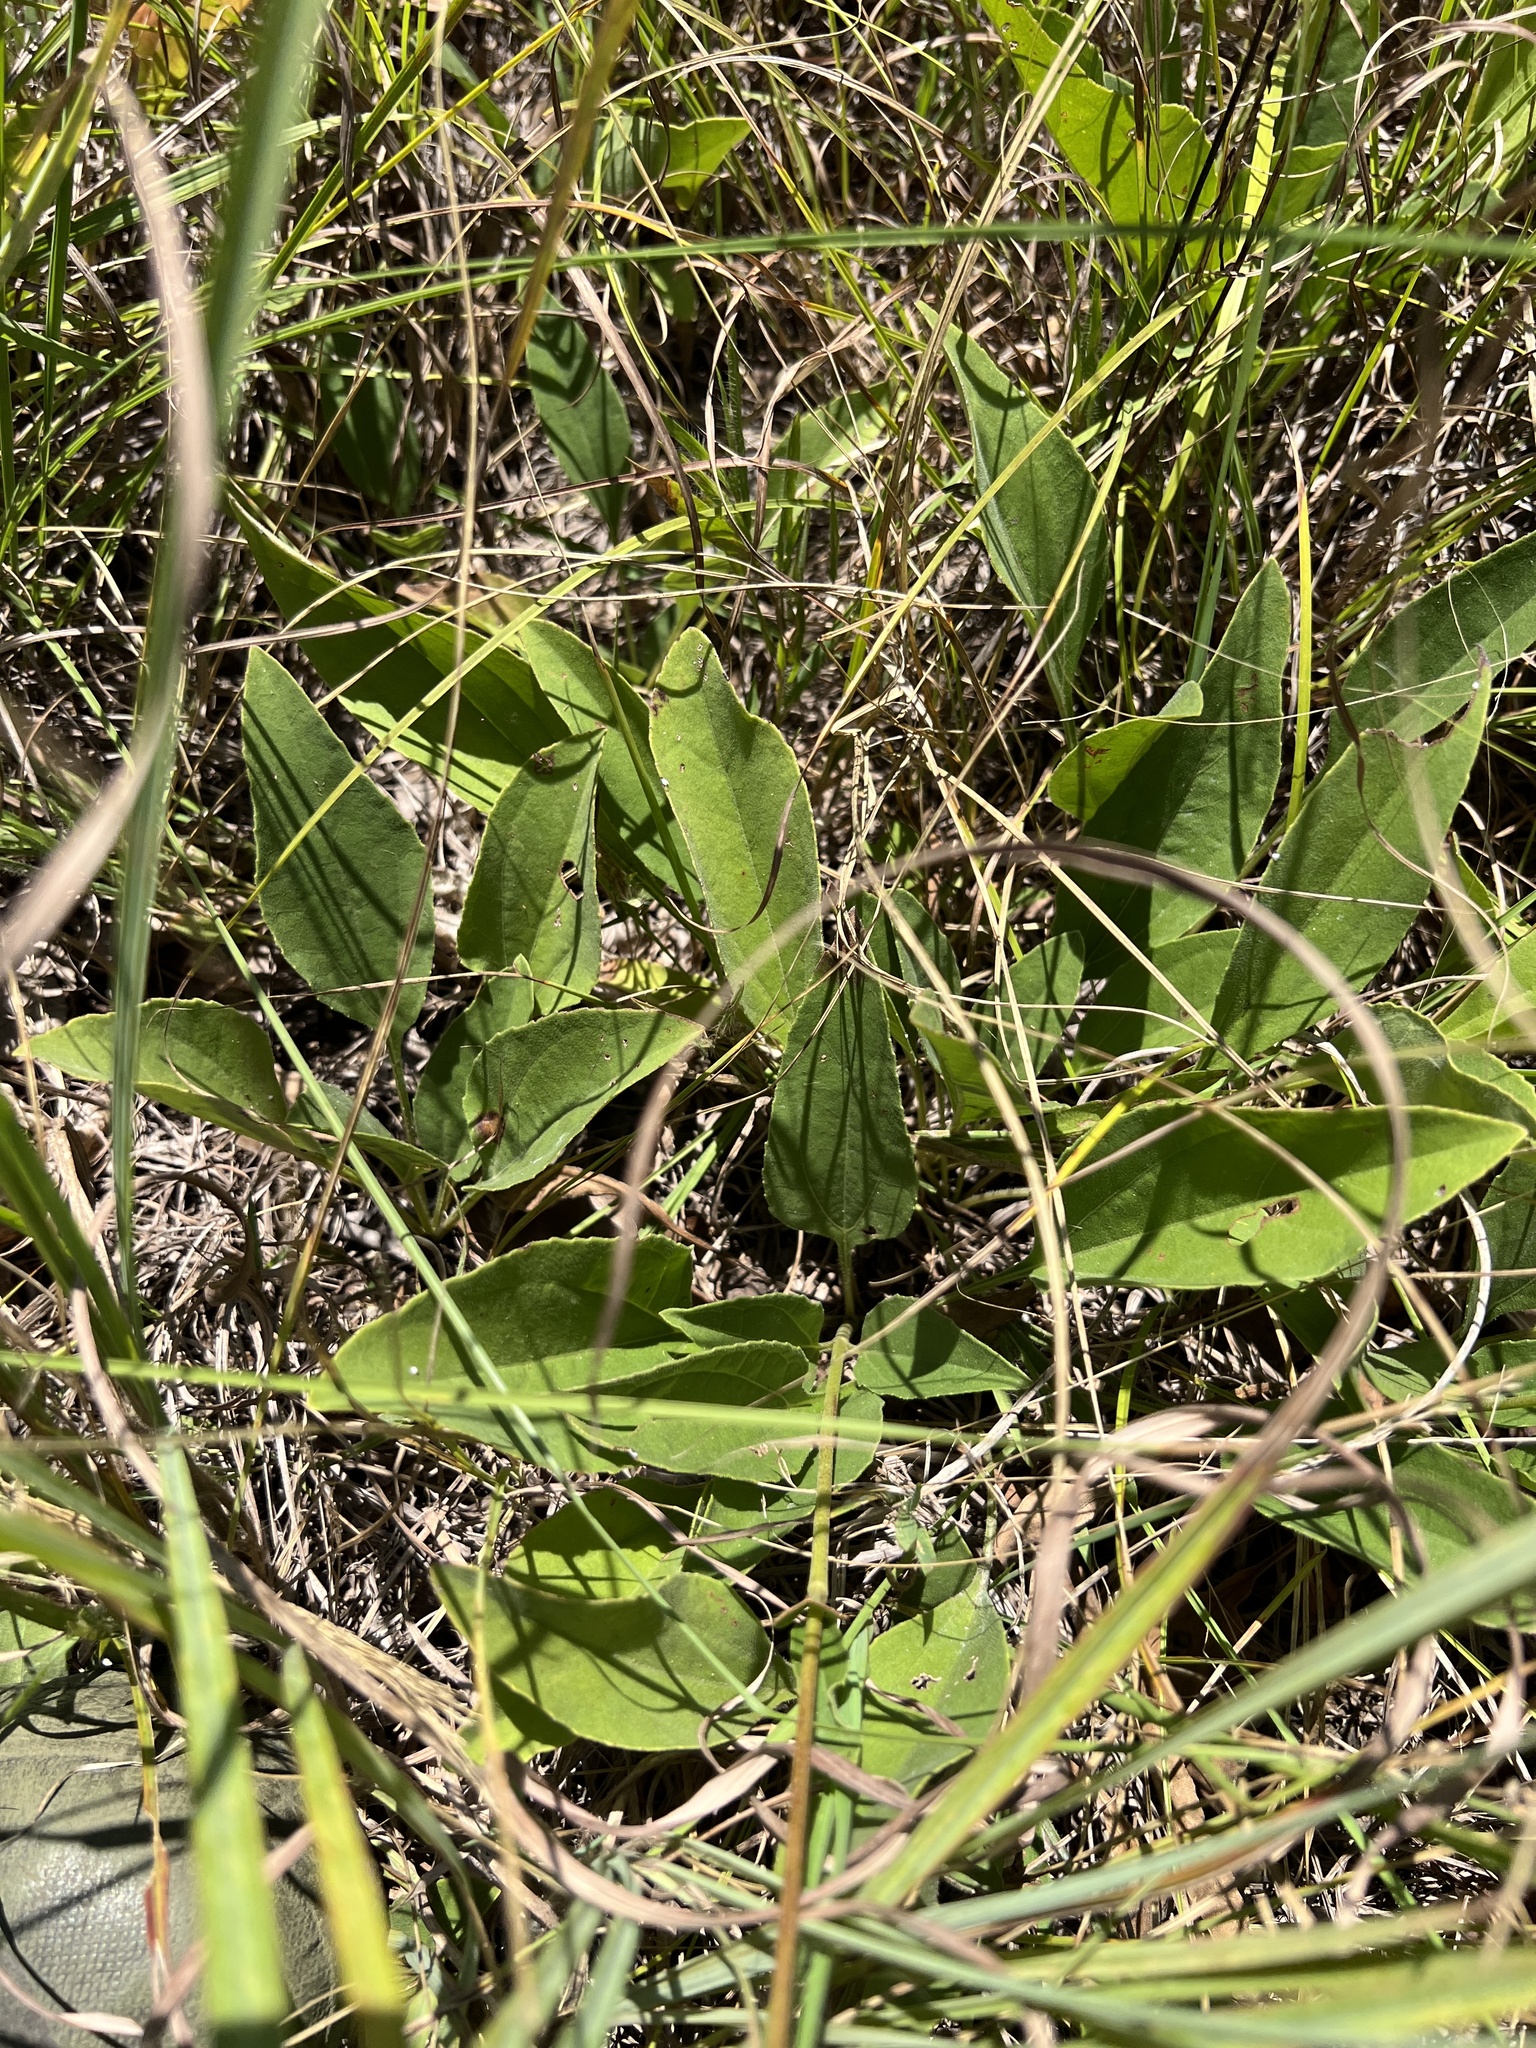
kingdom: Plantae
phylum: Tracheophyta
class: Magnoliopsida
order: Asterales
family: Asteraceae
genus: Helianthus
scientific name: Helianthus occidentalis
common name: Western sunflower
